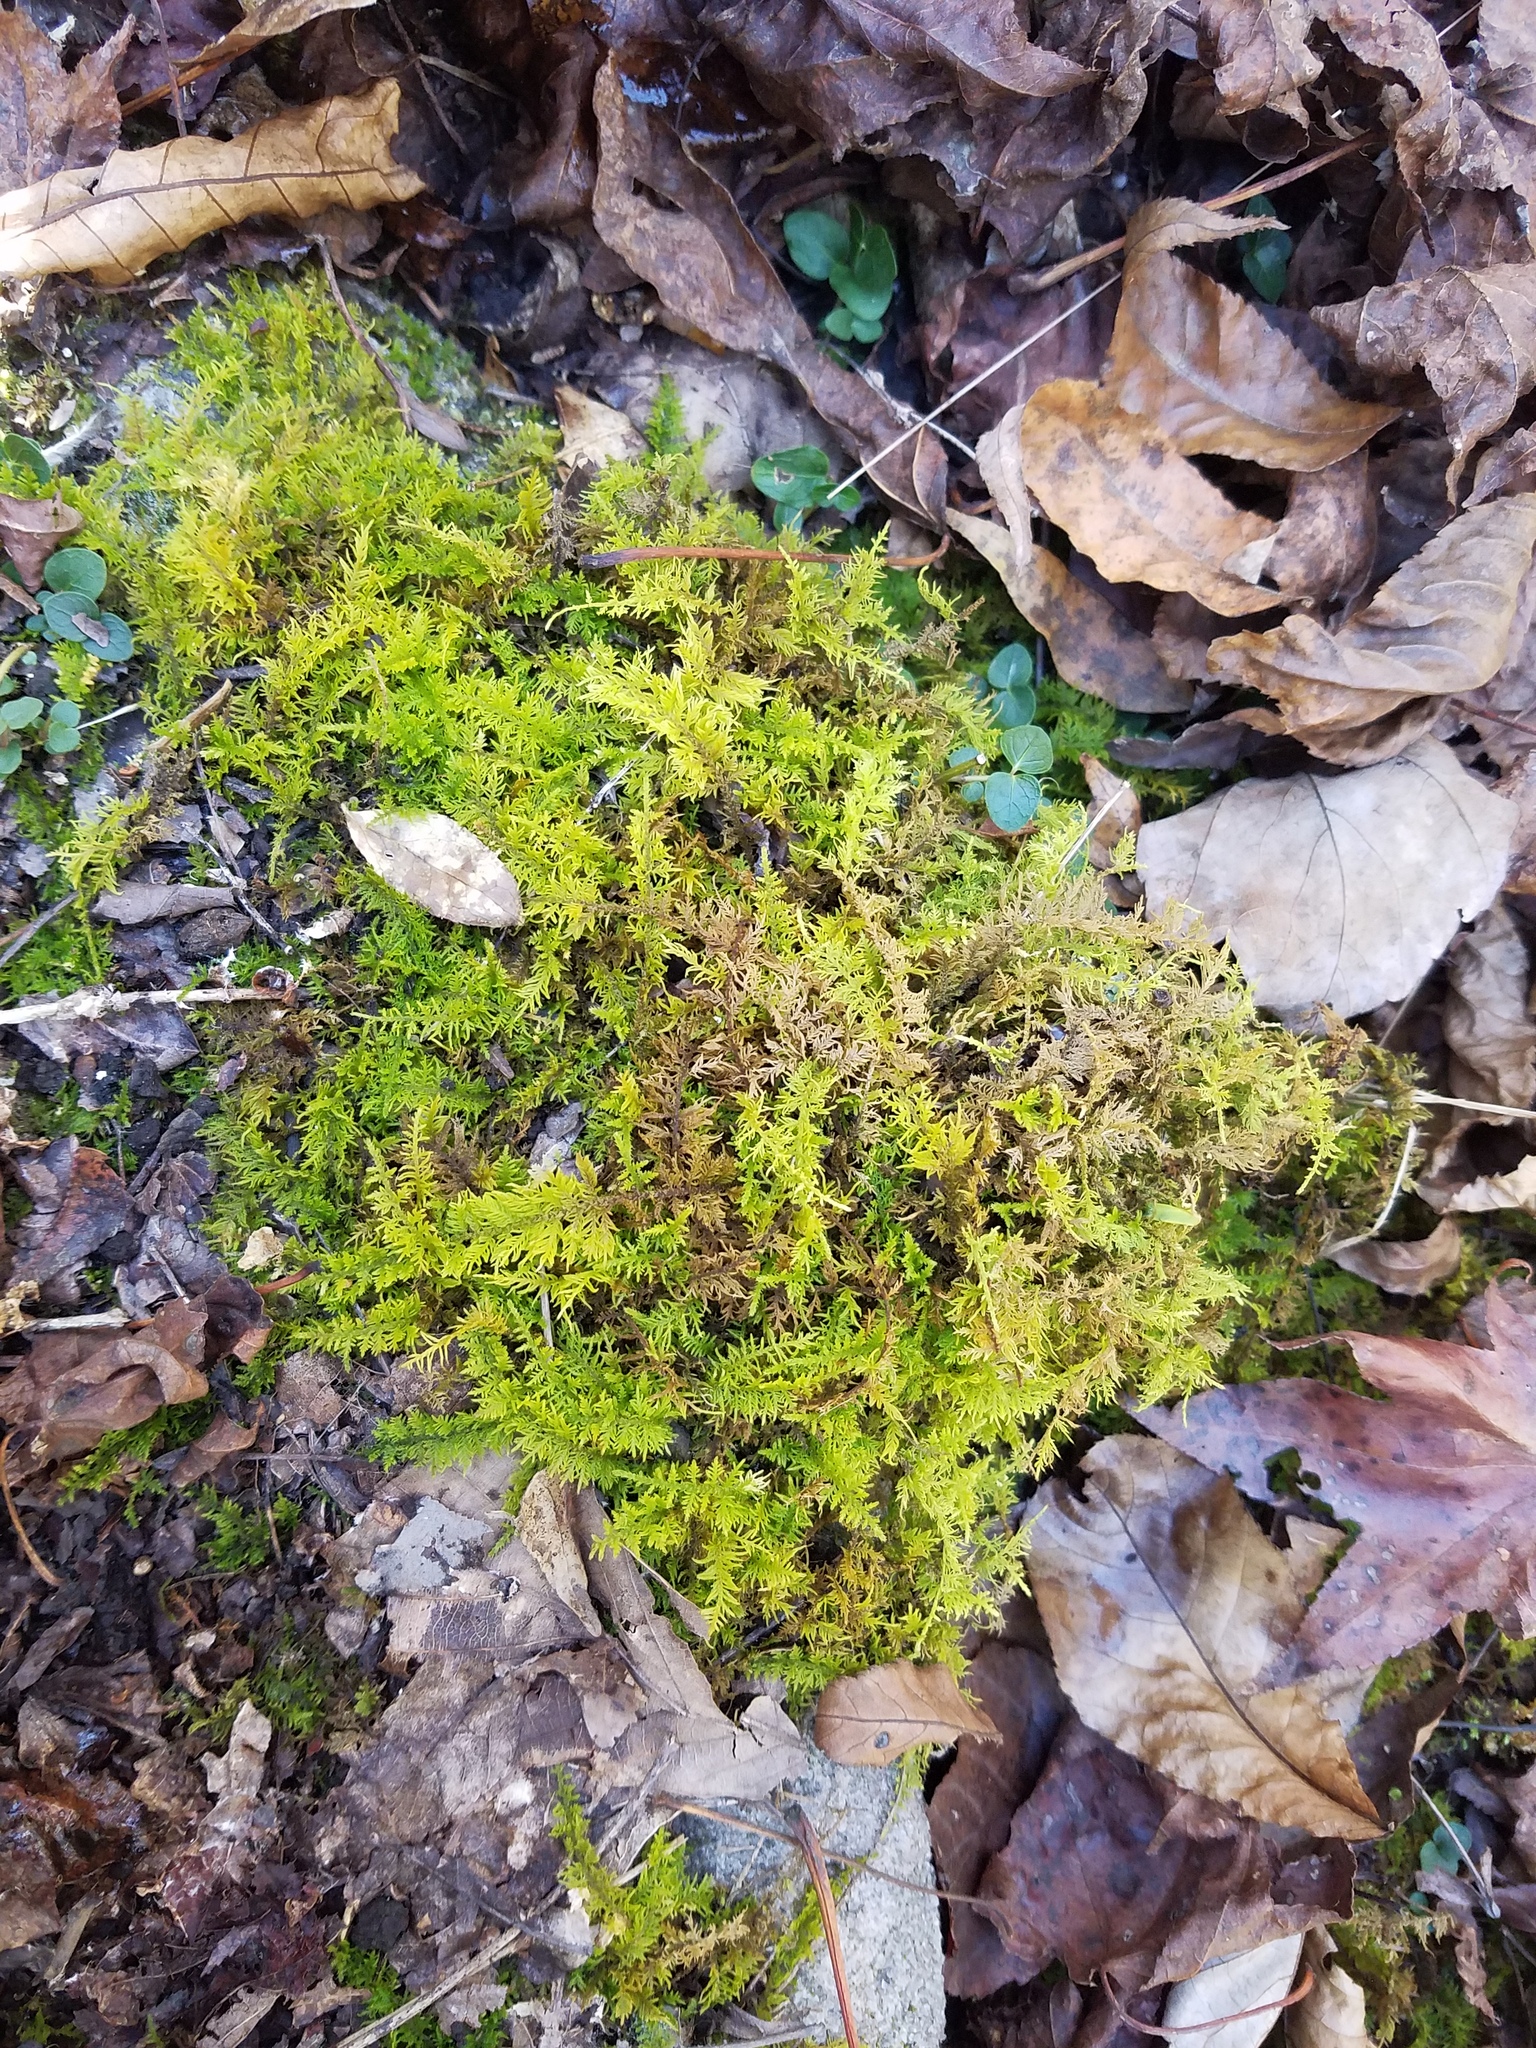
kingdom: Plantae
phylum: Bryophyta
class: Bryopsida
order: Hypnales
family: Thuidiaceae
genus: Thuidium
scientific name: Thuidium delicatulum
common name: Delicate fern moss
